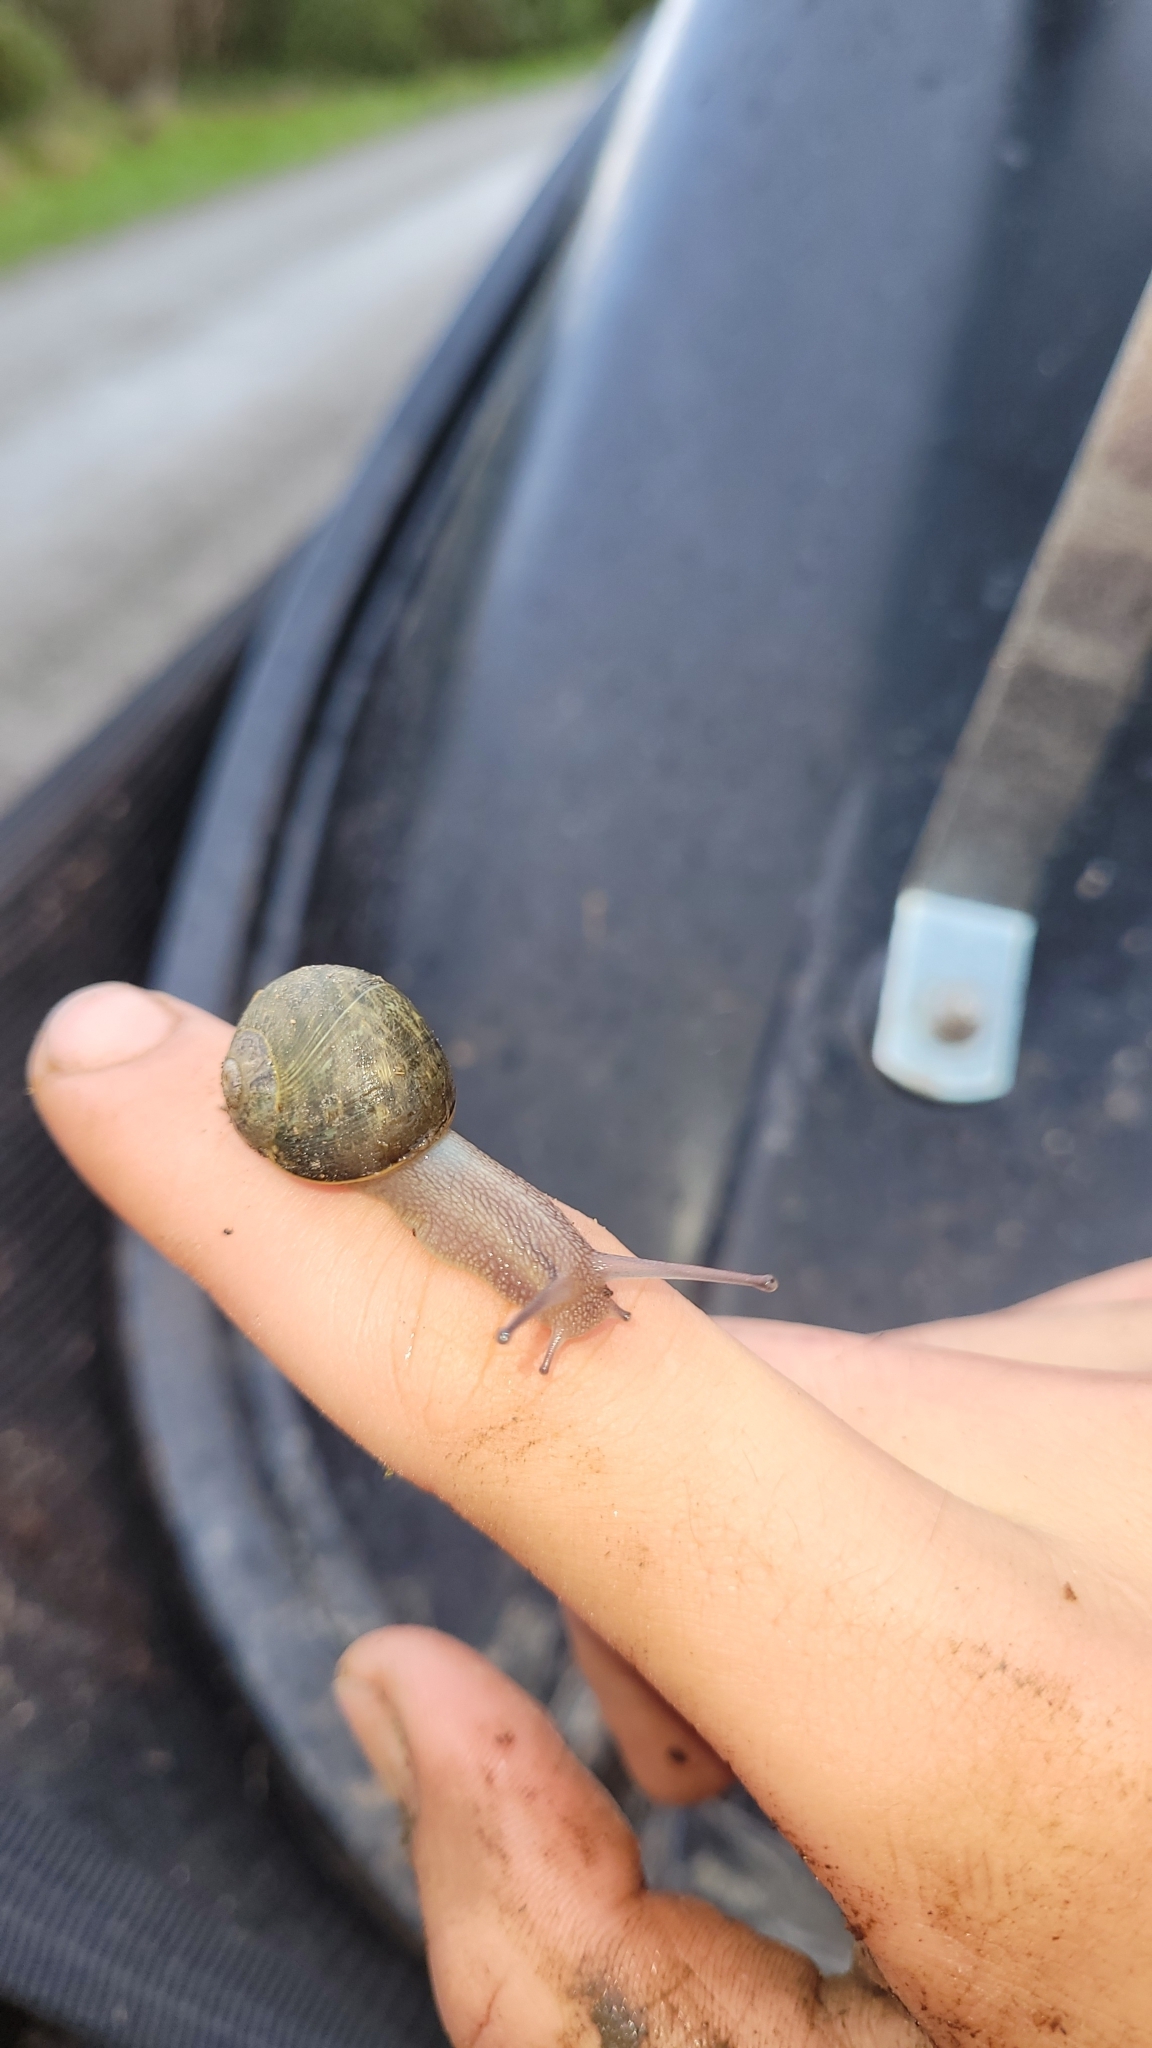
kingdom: Animalia
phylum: Mollusca
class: Gastropoda
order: Stylommatophora
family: Helicidae
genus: Cornu
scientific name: Cornu aspersum
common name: Brown garden snail
